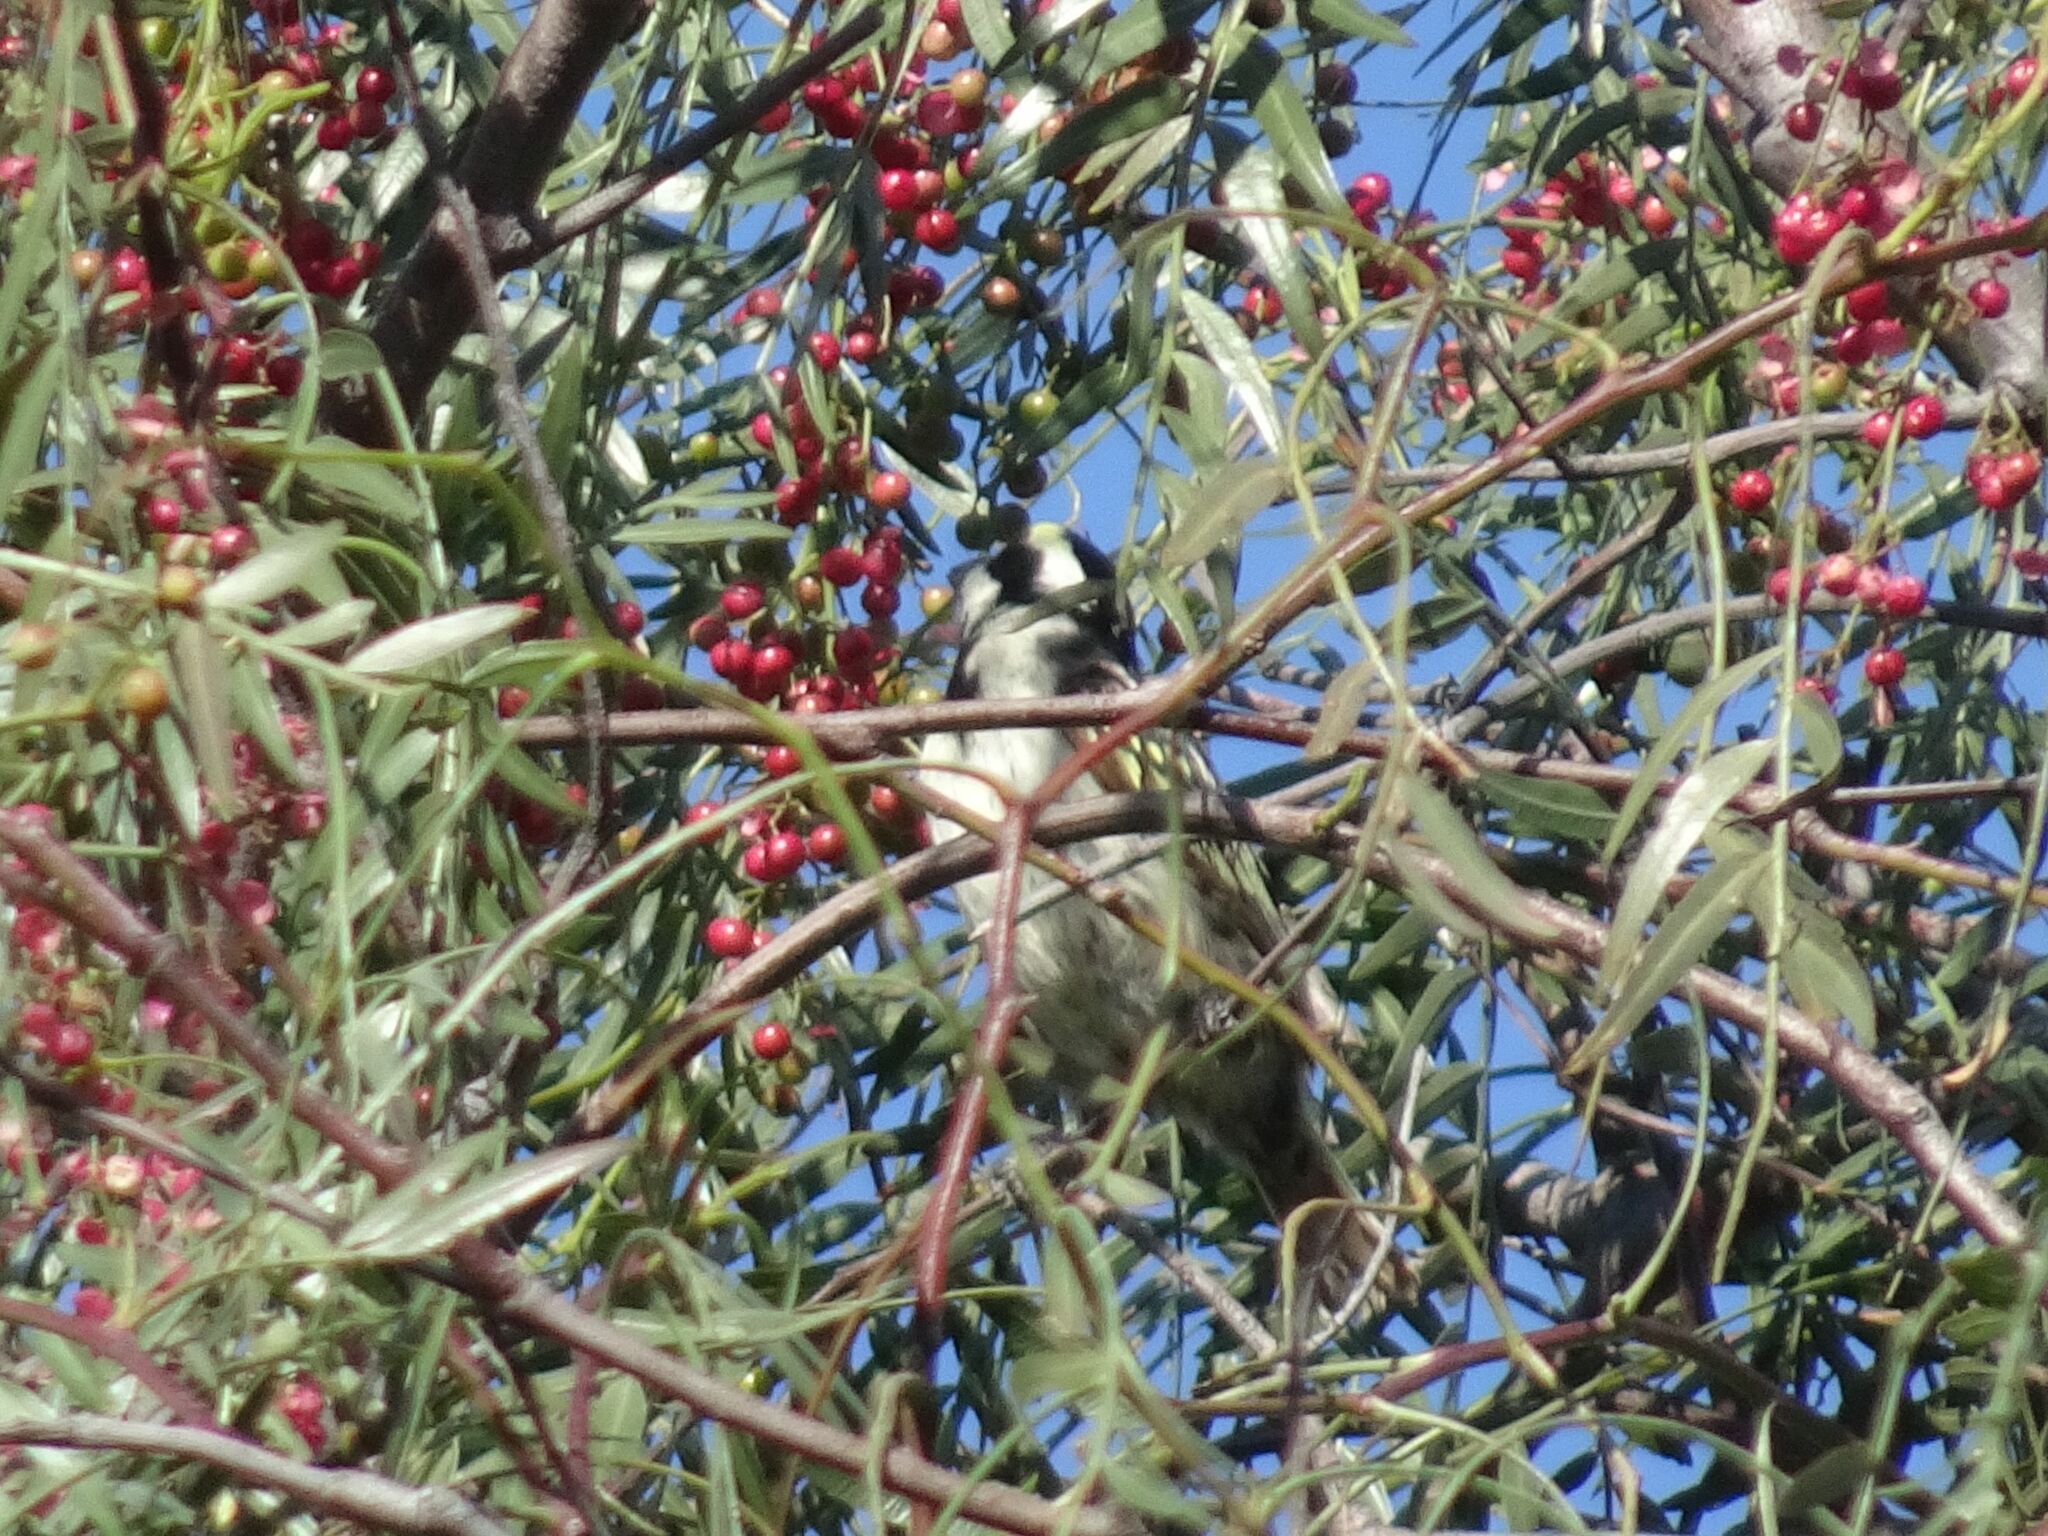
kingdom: Animalia
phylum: Chordata
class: Aves
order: Piciformes
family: Lybiidae
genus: Tricholaema
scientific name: Tricholaema leucomelas
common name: Acacia pied barbet
